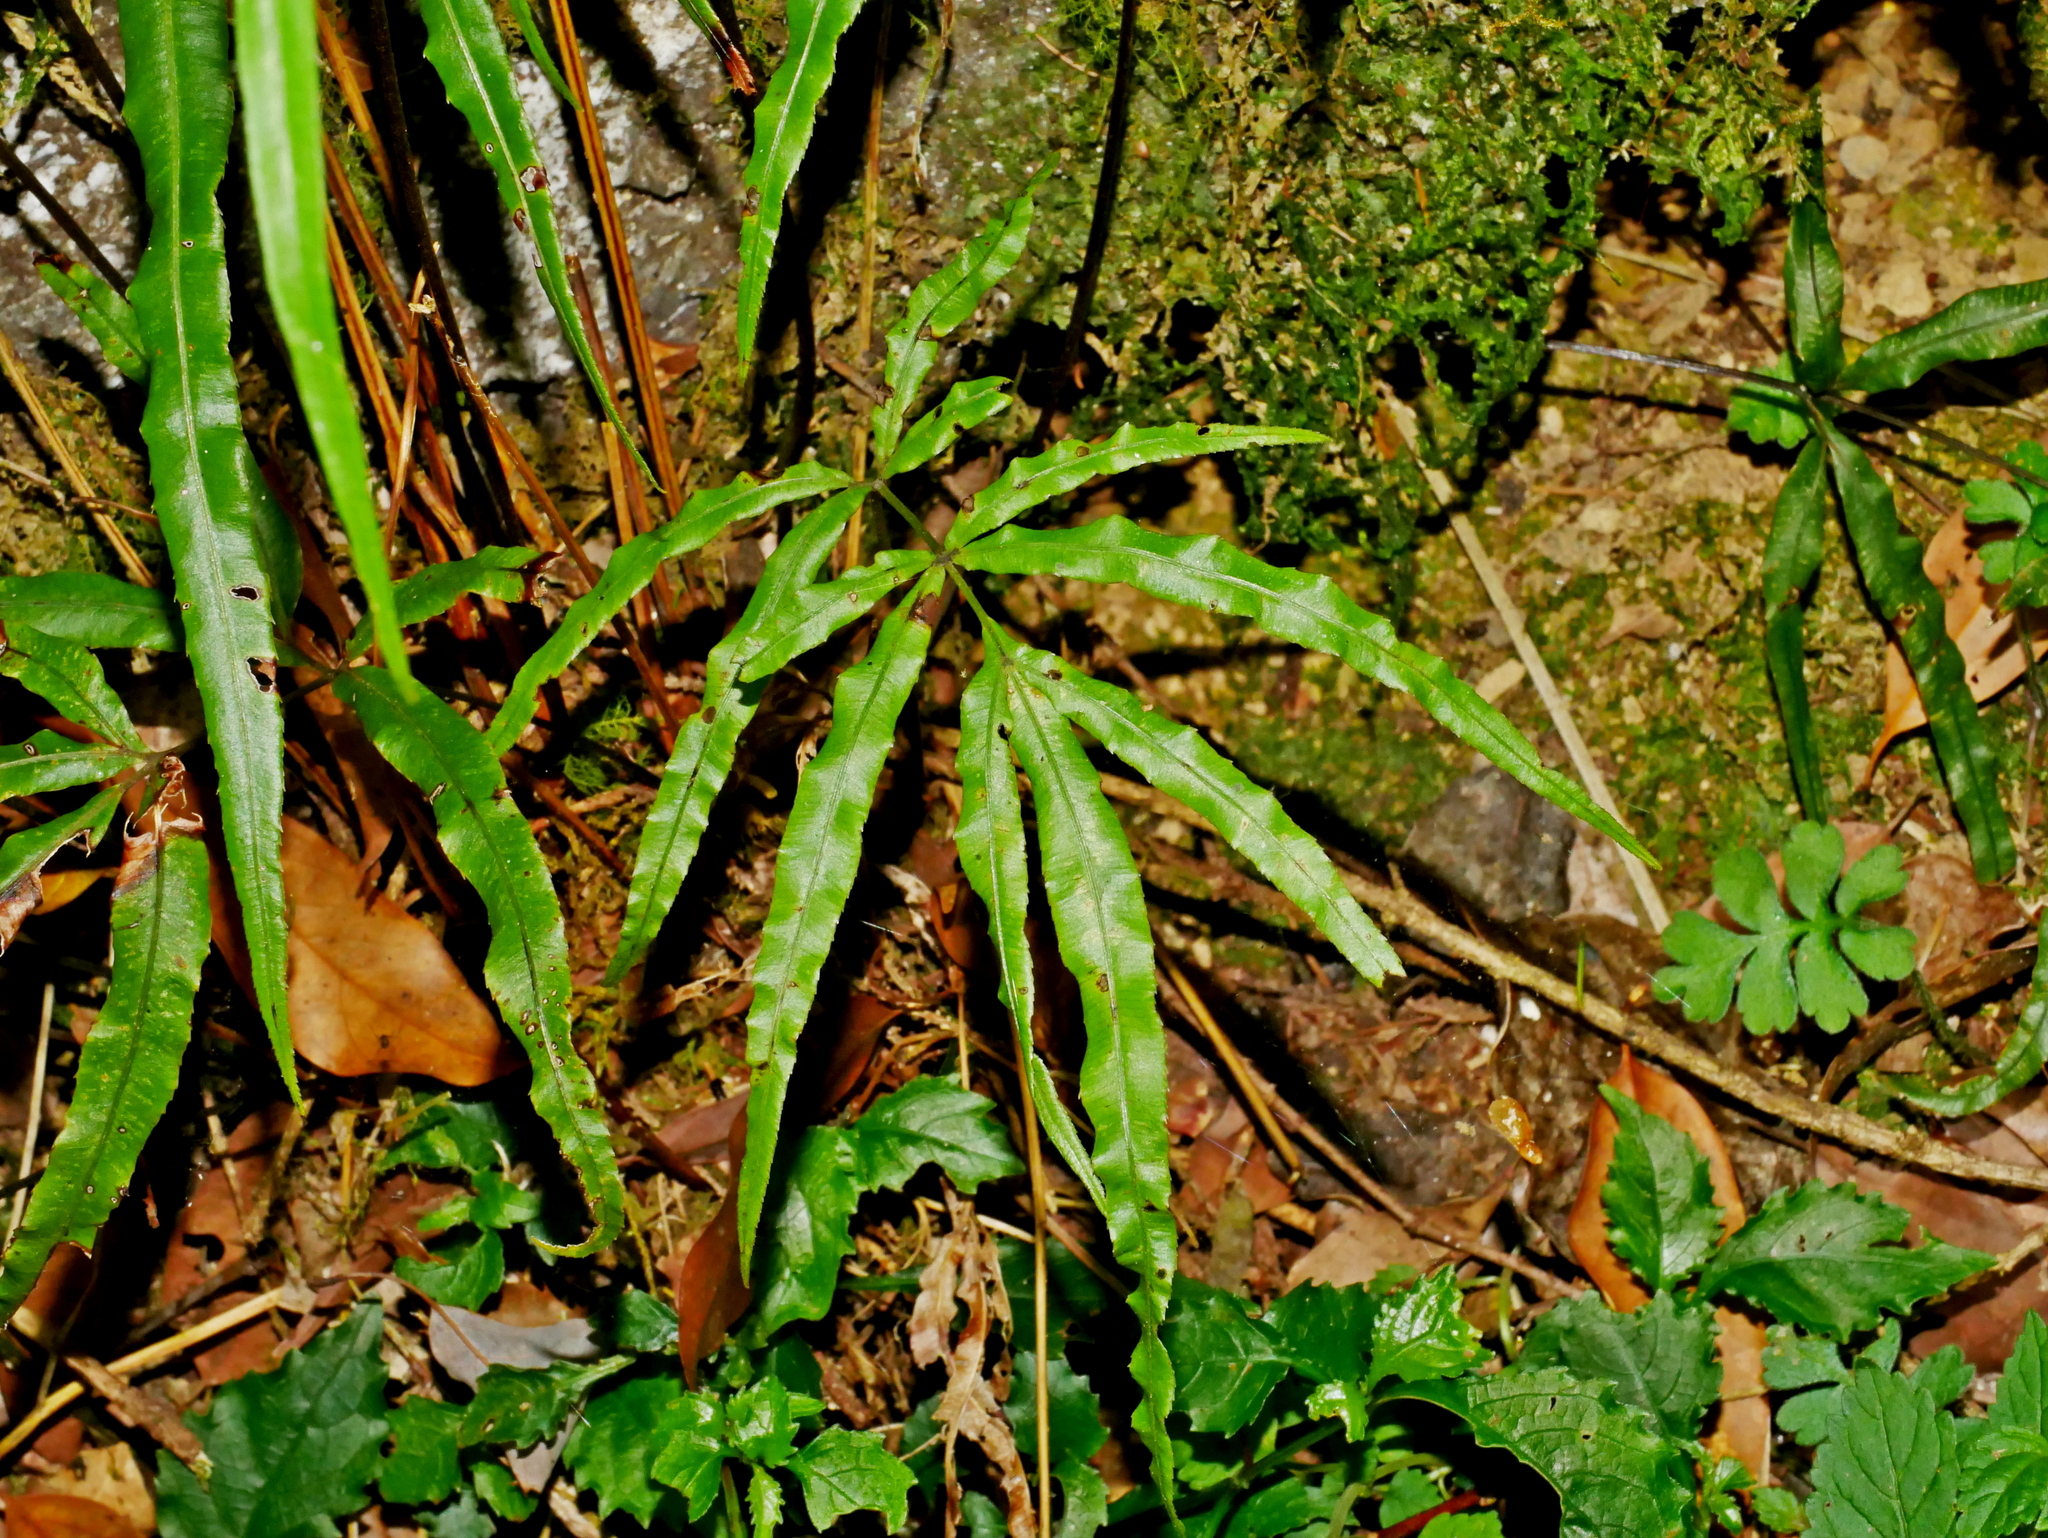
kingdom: Plantae
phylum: Tracheophyta
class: Polypodiopsida
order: Polypodiales
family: Pteridaceae
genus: Pteris
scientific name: Pteris cretica
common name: Ribbon fern
